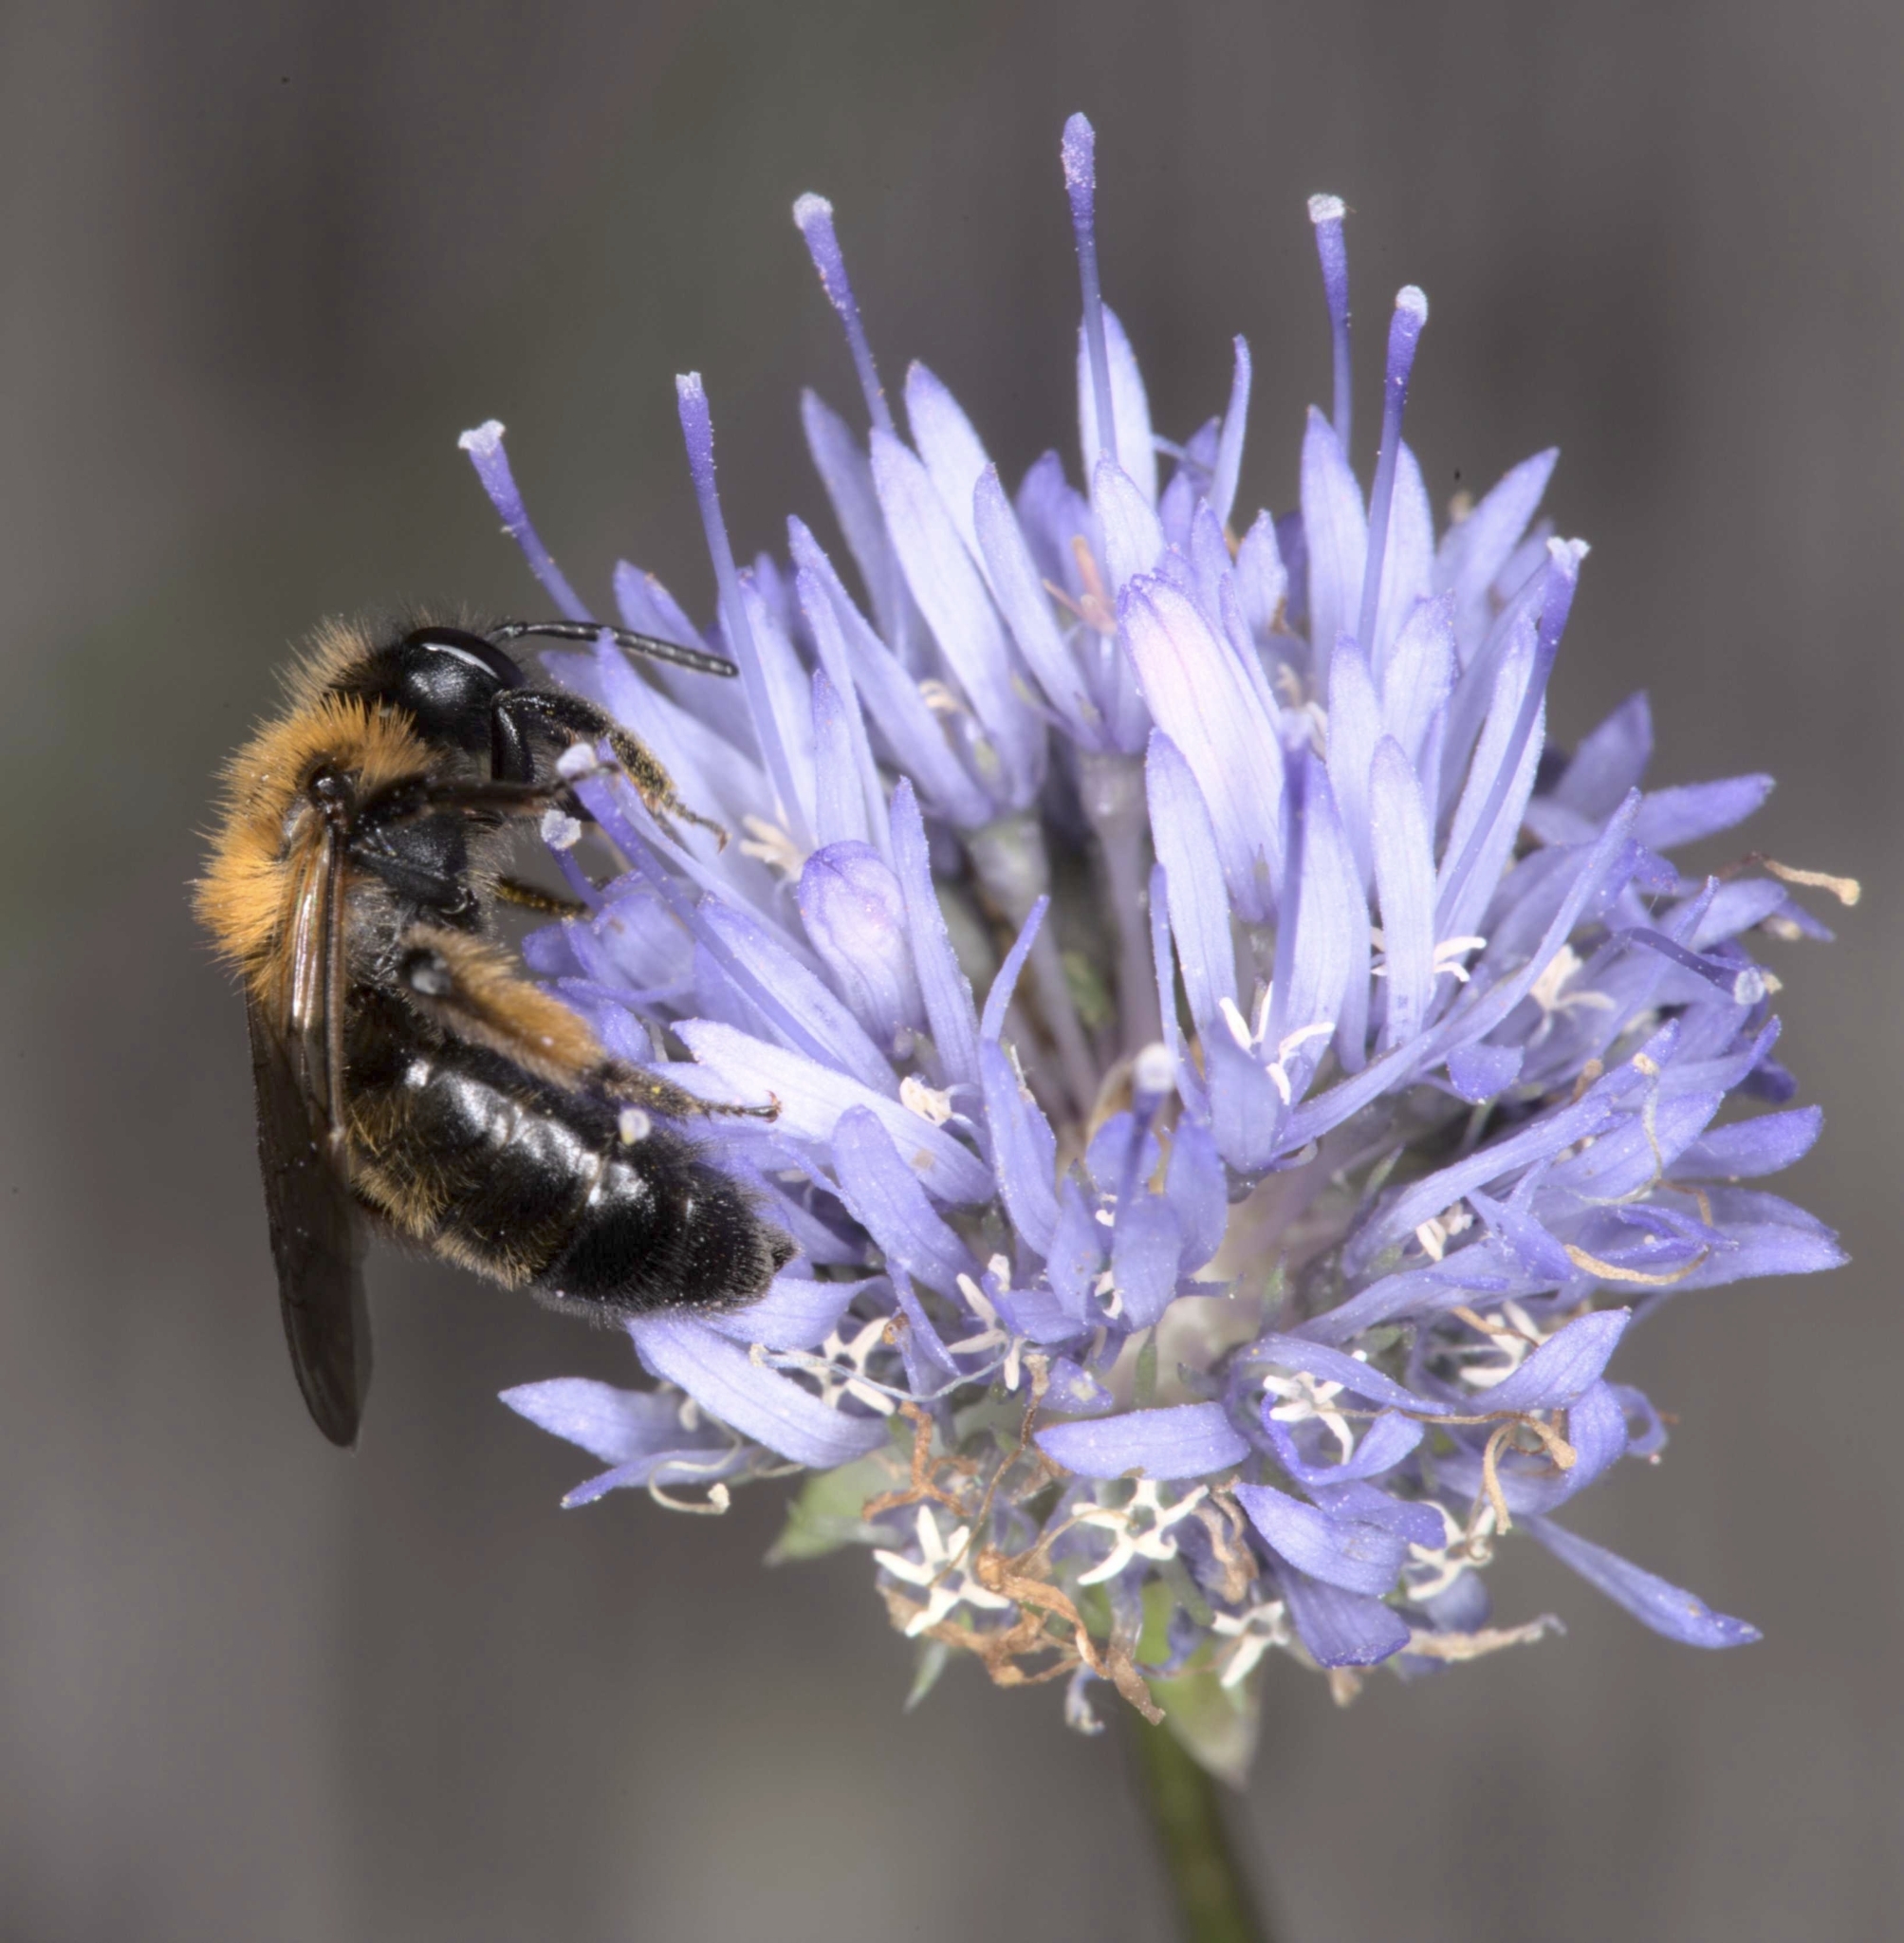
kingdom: Animalia
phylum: Arthropoda
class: Insecta
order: Hymenoptera
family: Andrenidae
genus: Andrena
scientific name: Andrena bicolor
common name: Gwynne's mining bee
